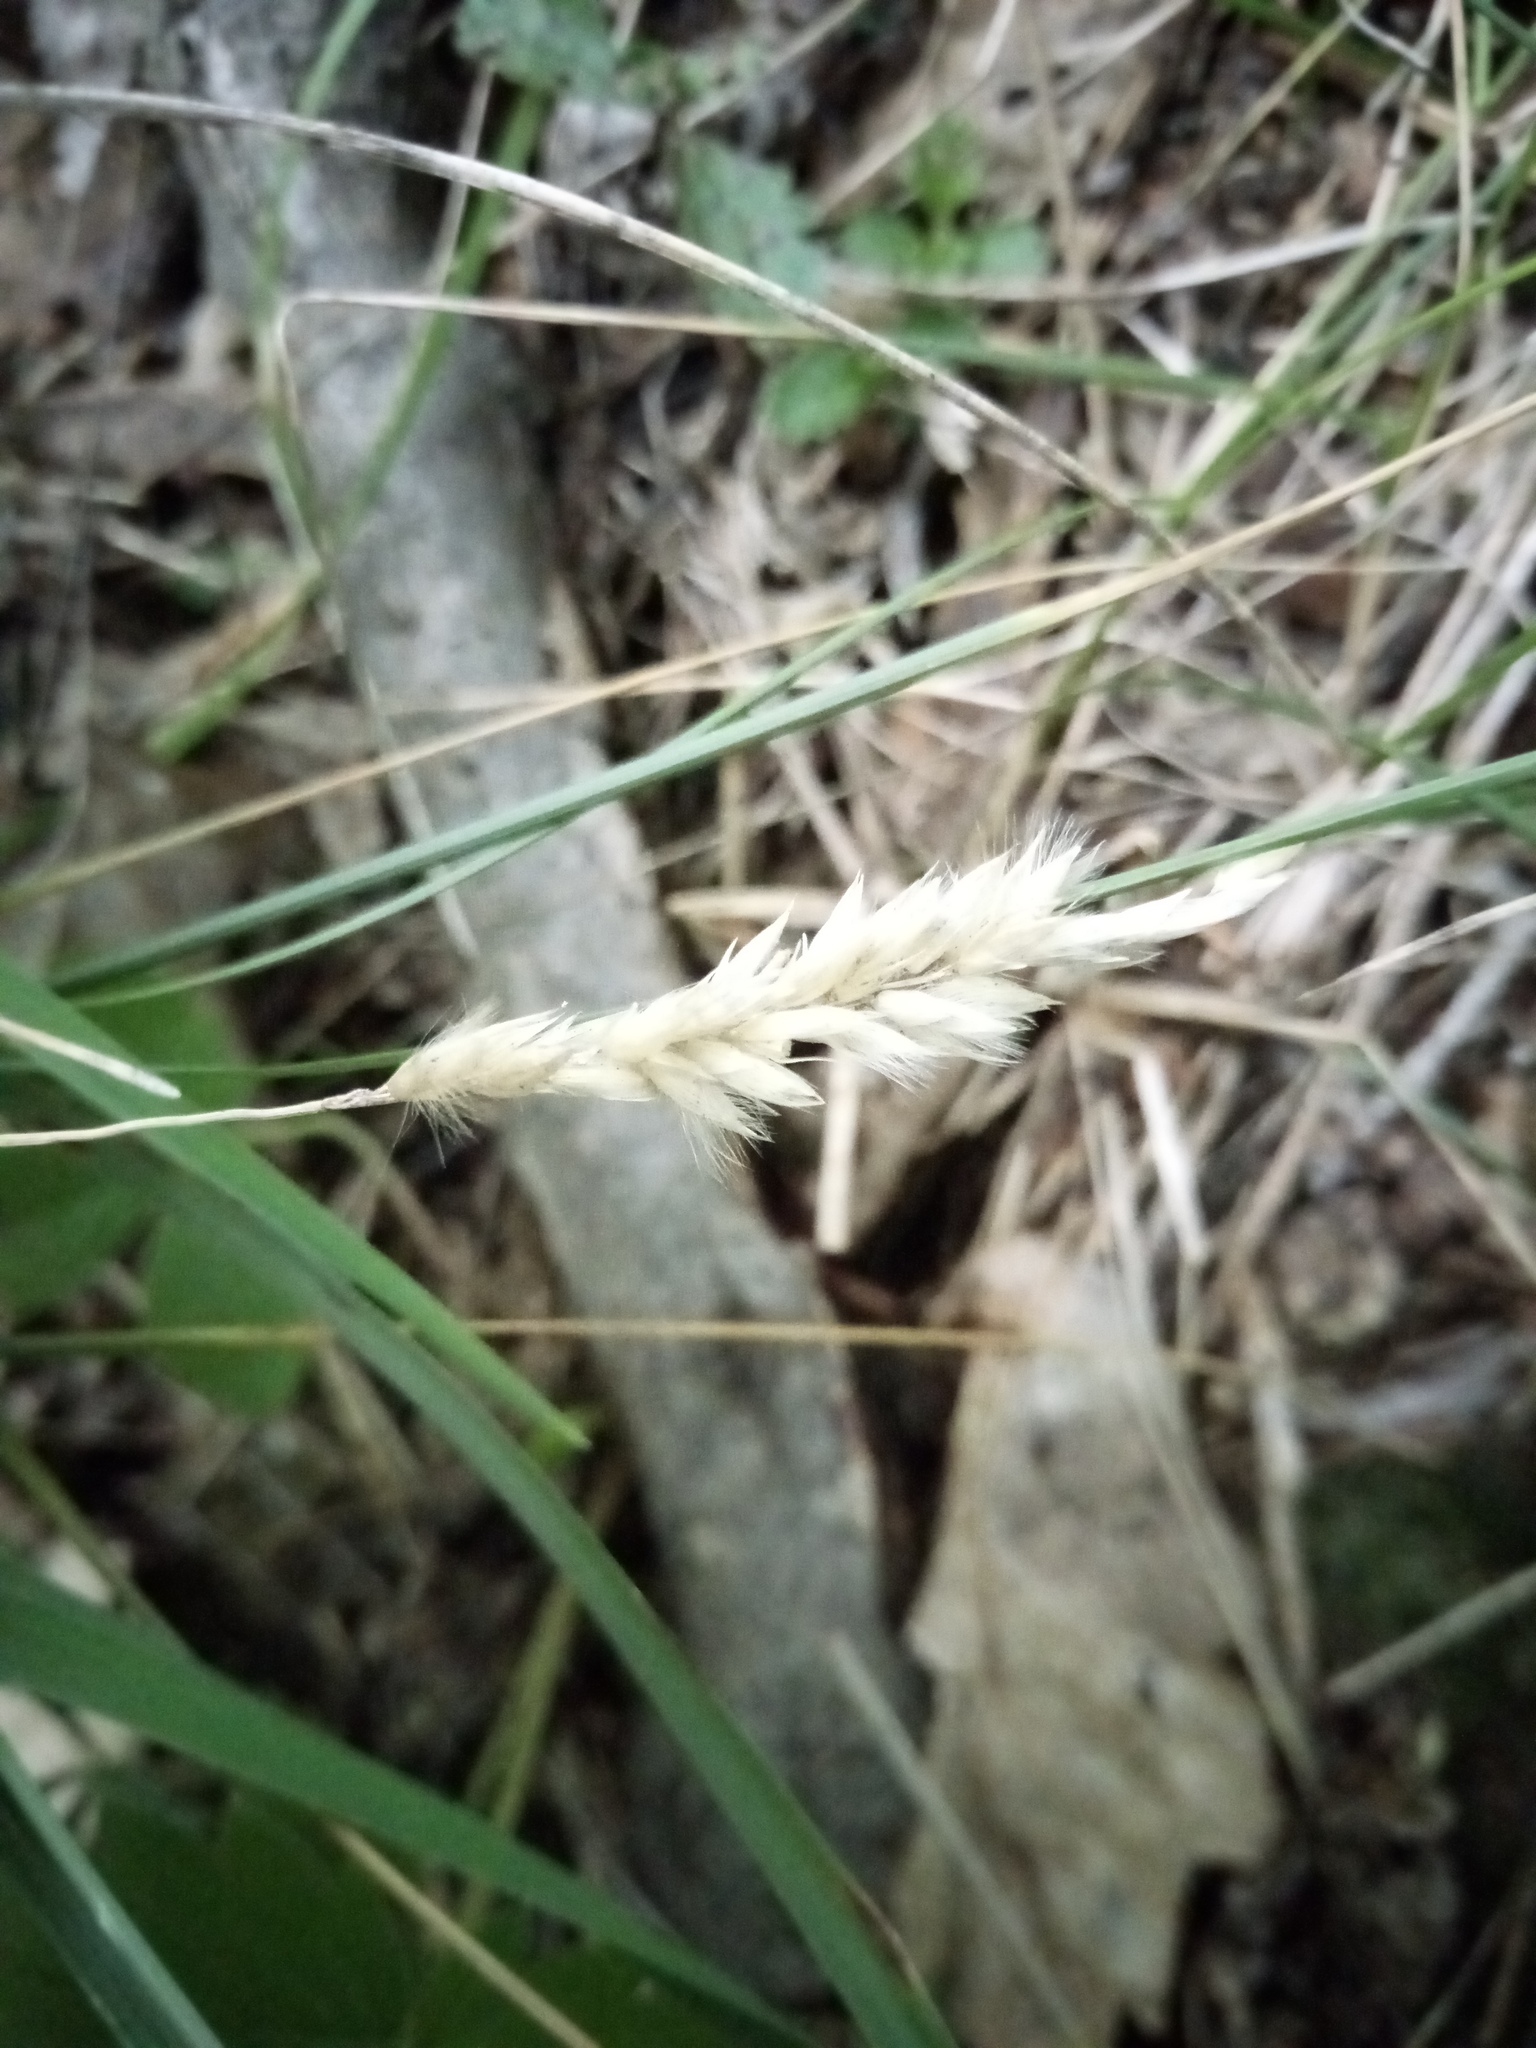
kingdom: Plantae
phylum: Tracheophyta
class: Liliopsida
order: Poales
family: Poaceae
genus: Melica
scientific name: Melica transsilvanica
